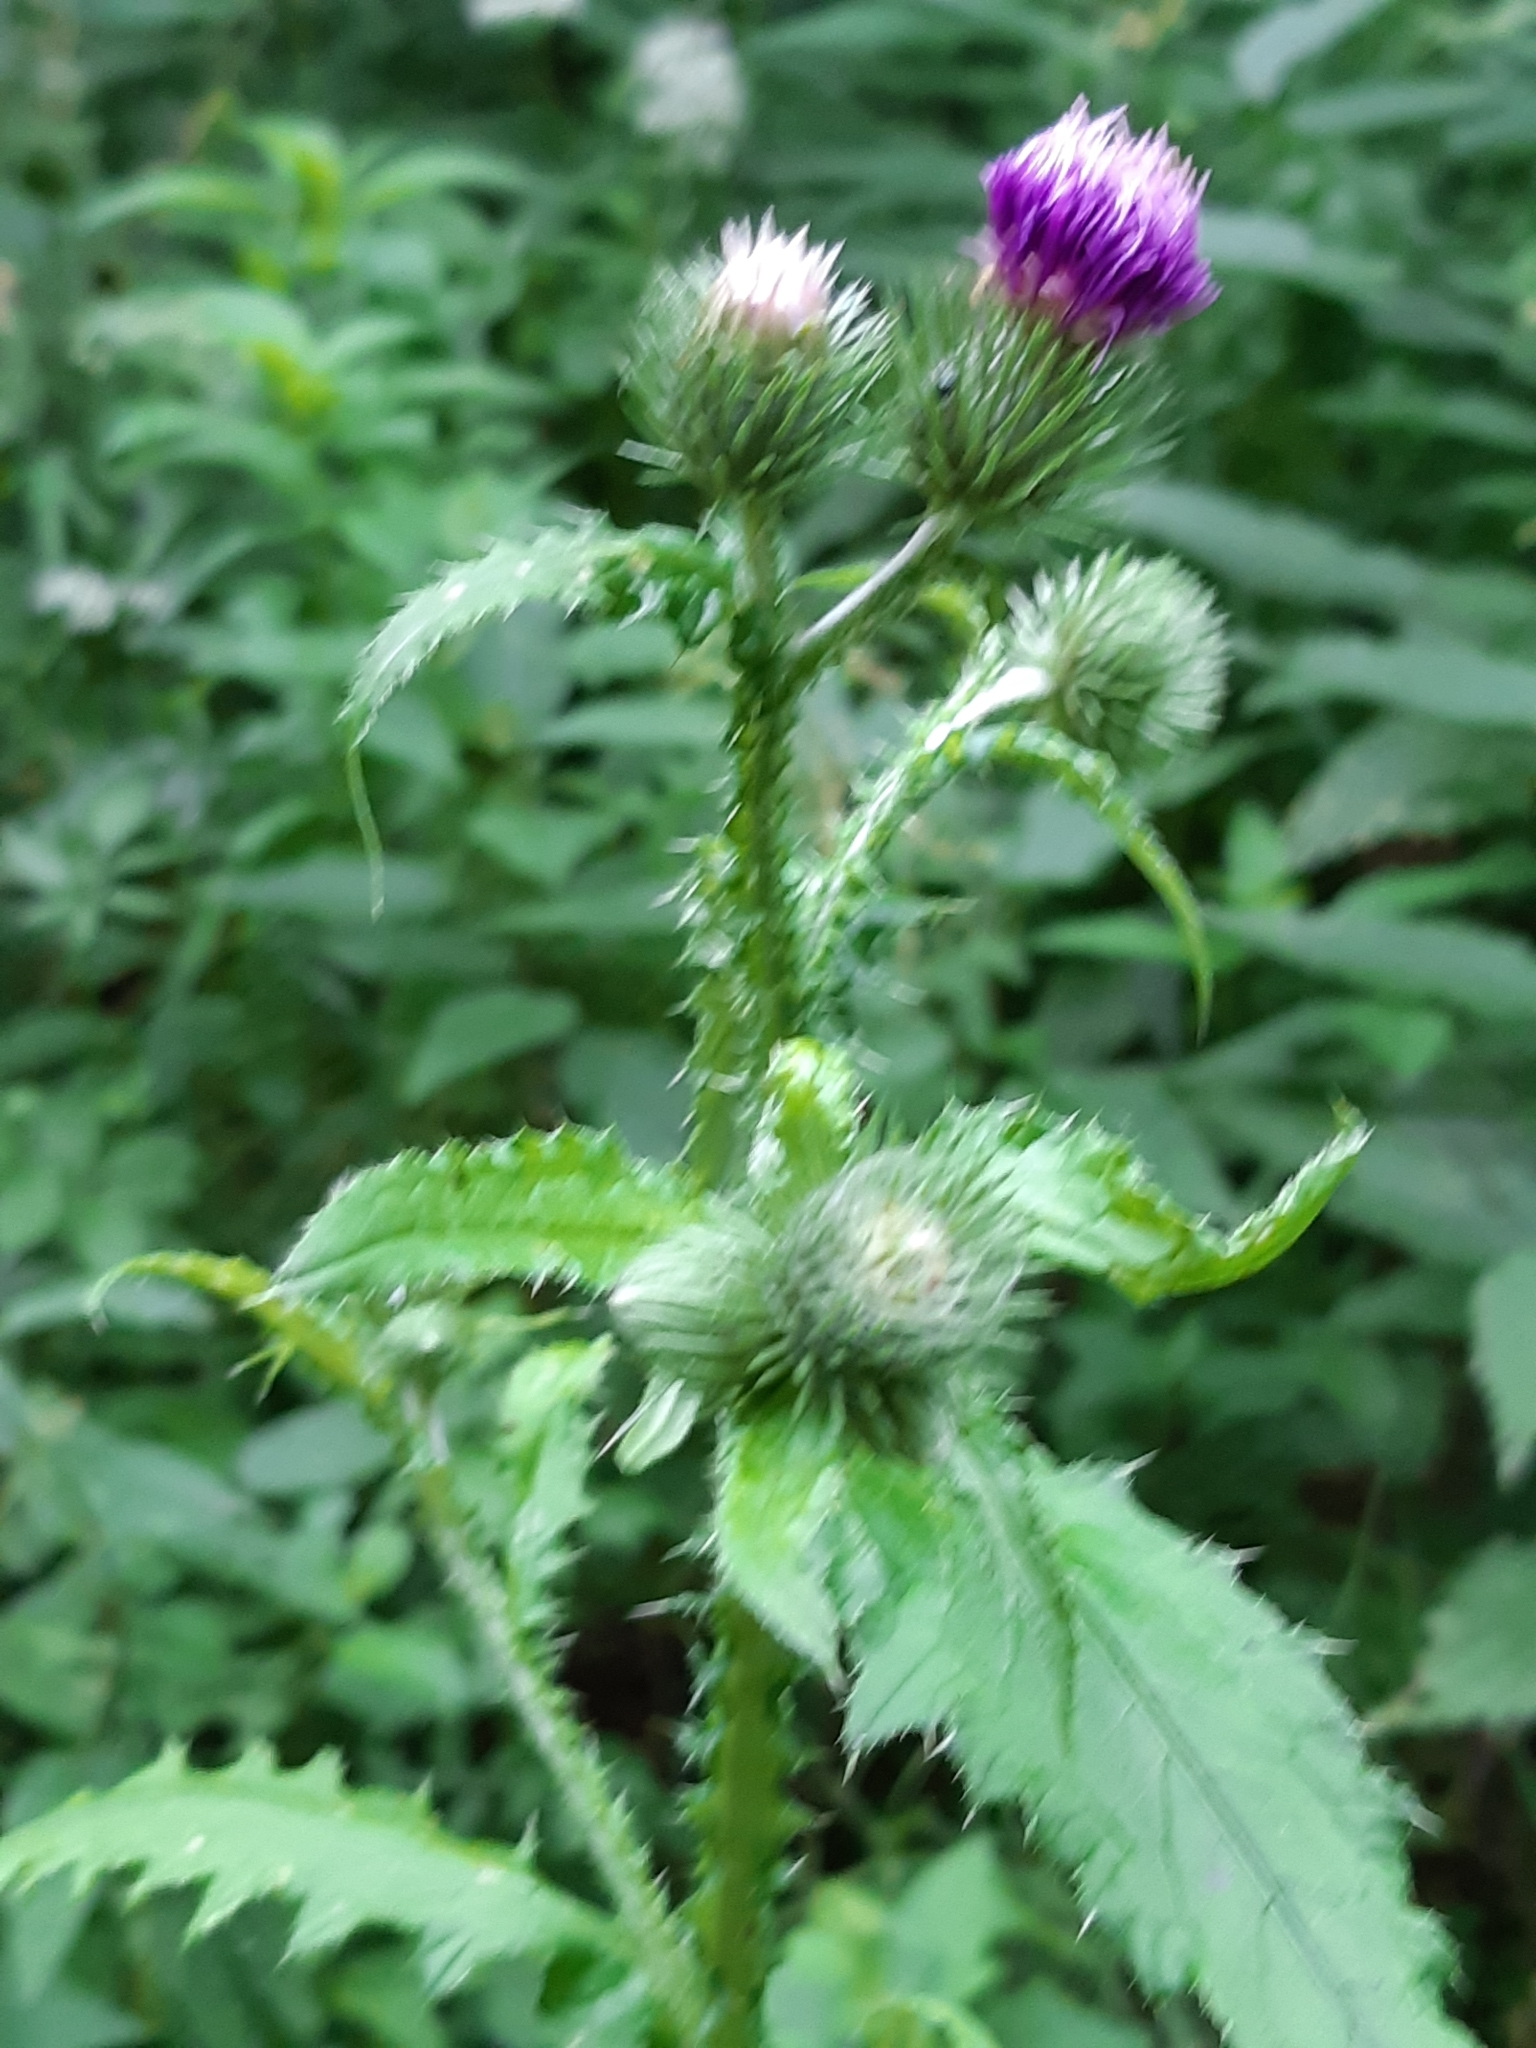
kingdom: Plantae
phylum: Tracheophyta
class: Magnoliopsida
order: Asterales
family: Asteraceae
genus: Carduus
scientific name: Carduus crispus
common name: Welted thistle
